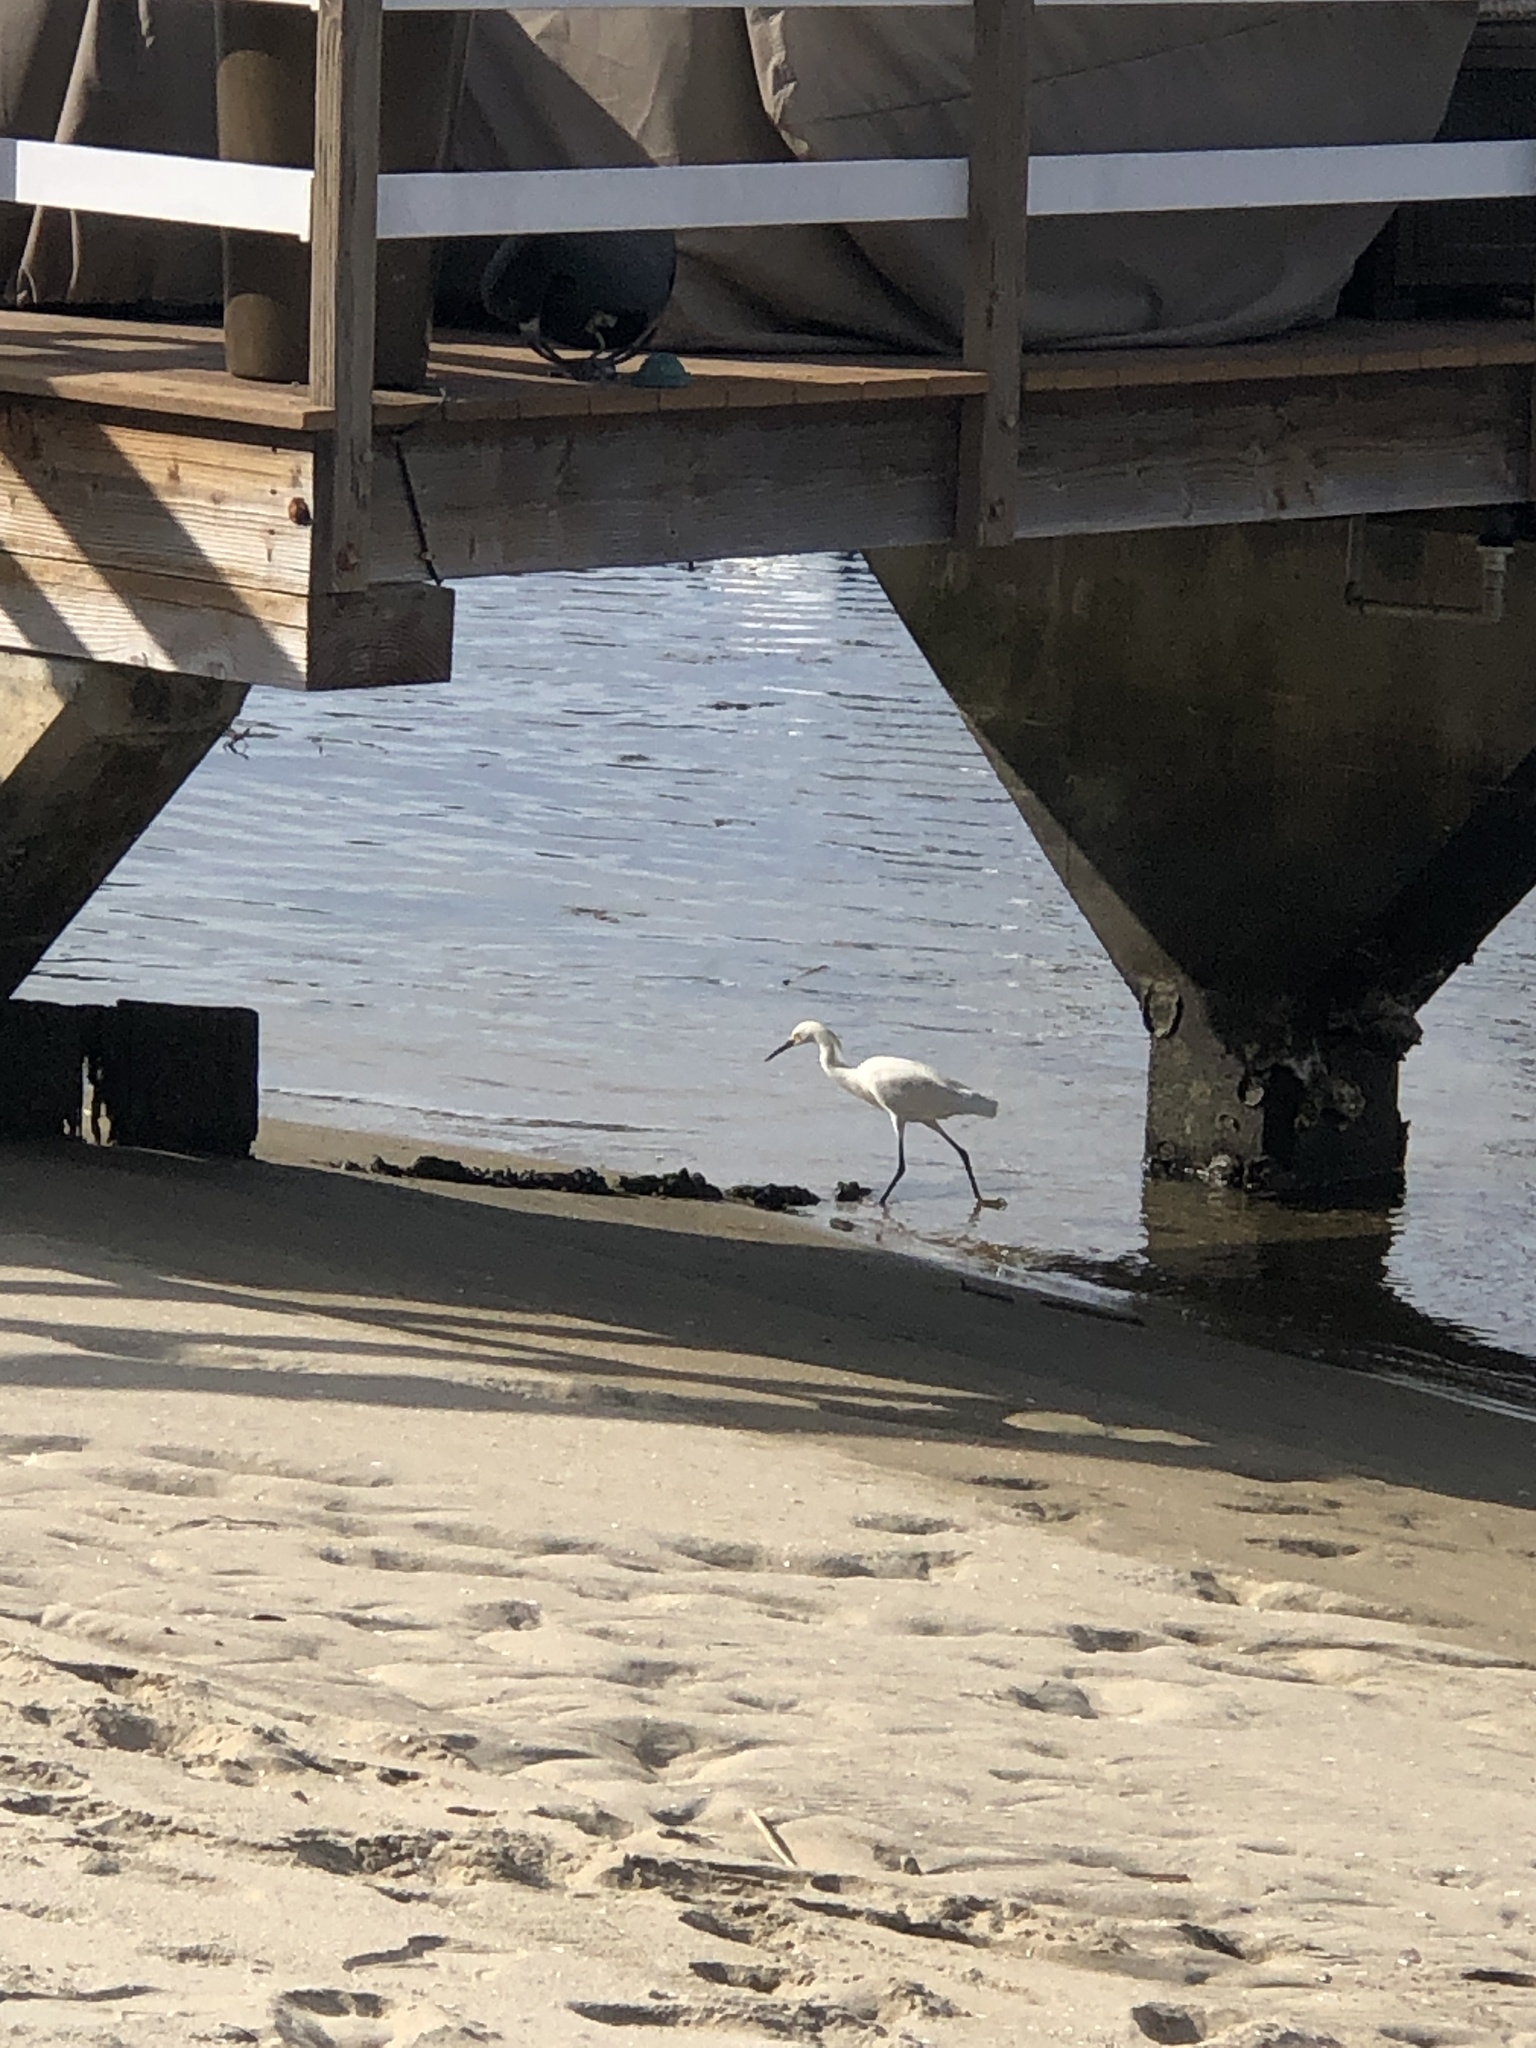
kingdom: Animalia
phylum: Chordata
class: Aves
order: Pelecaniformes
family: Ardeidae
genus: Egretta
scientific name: Egretta thula
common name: Snowy egret
